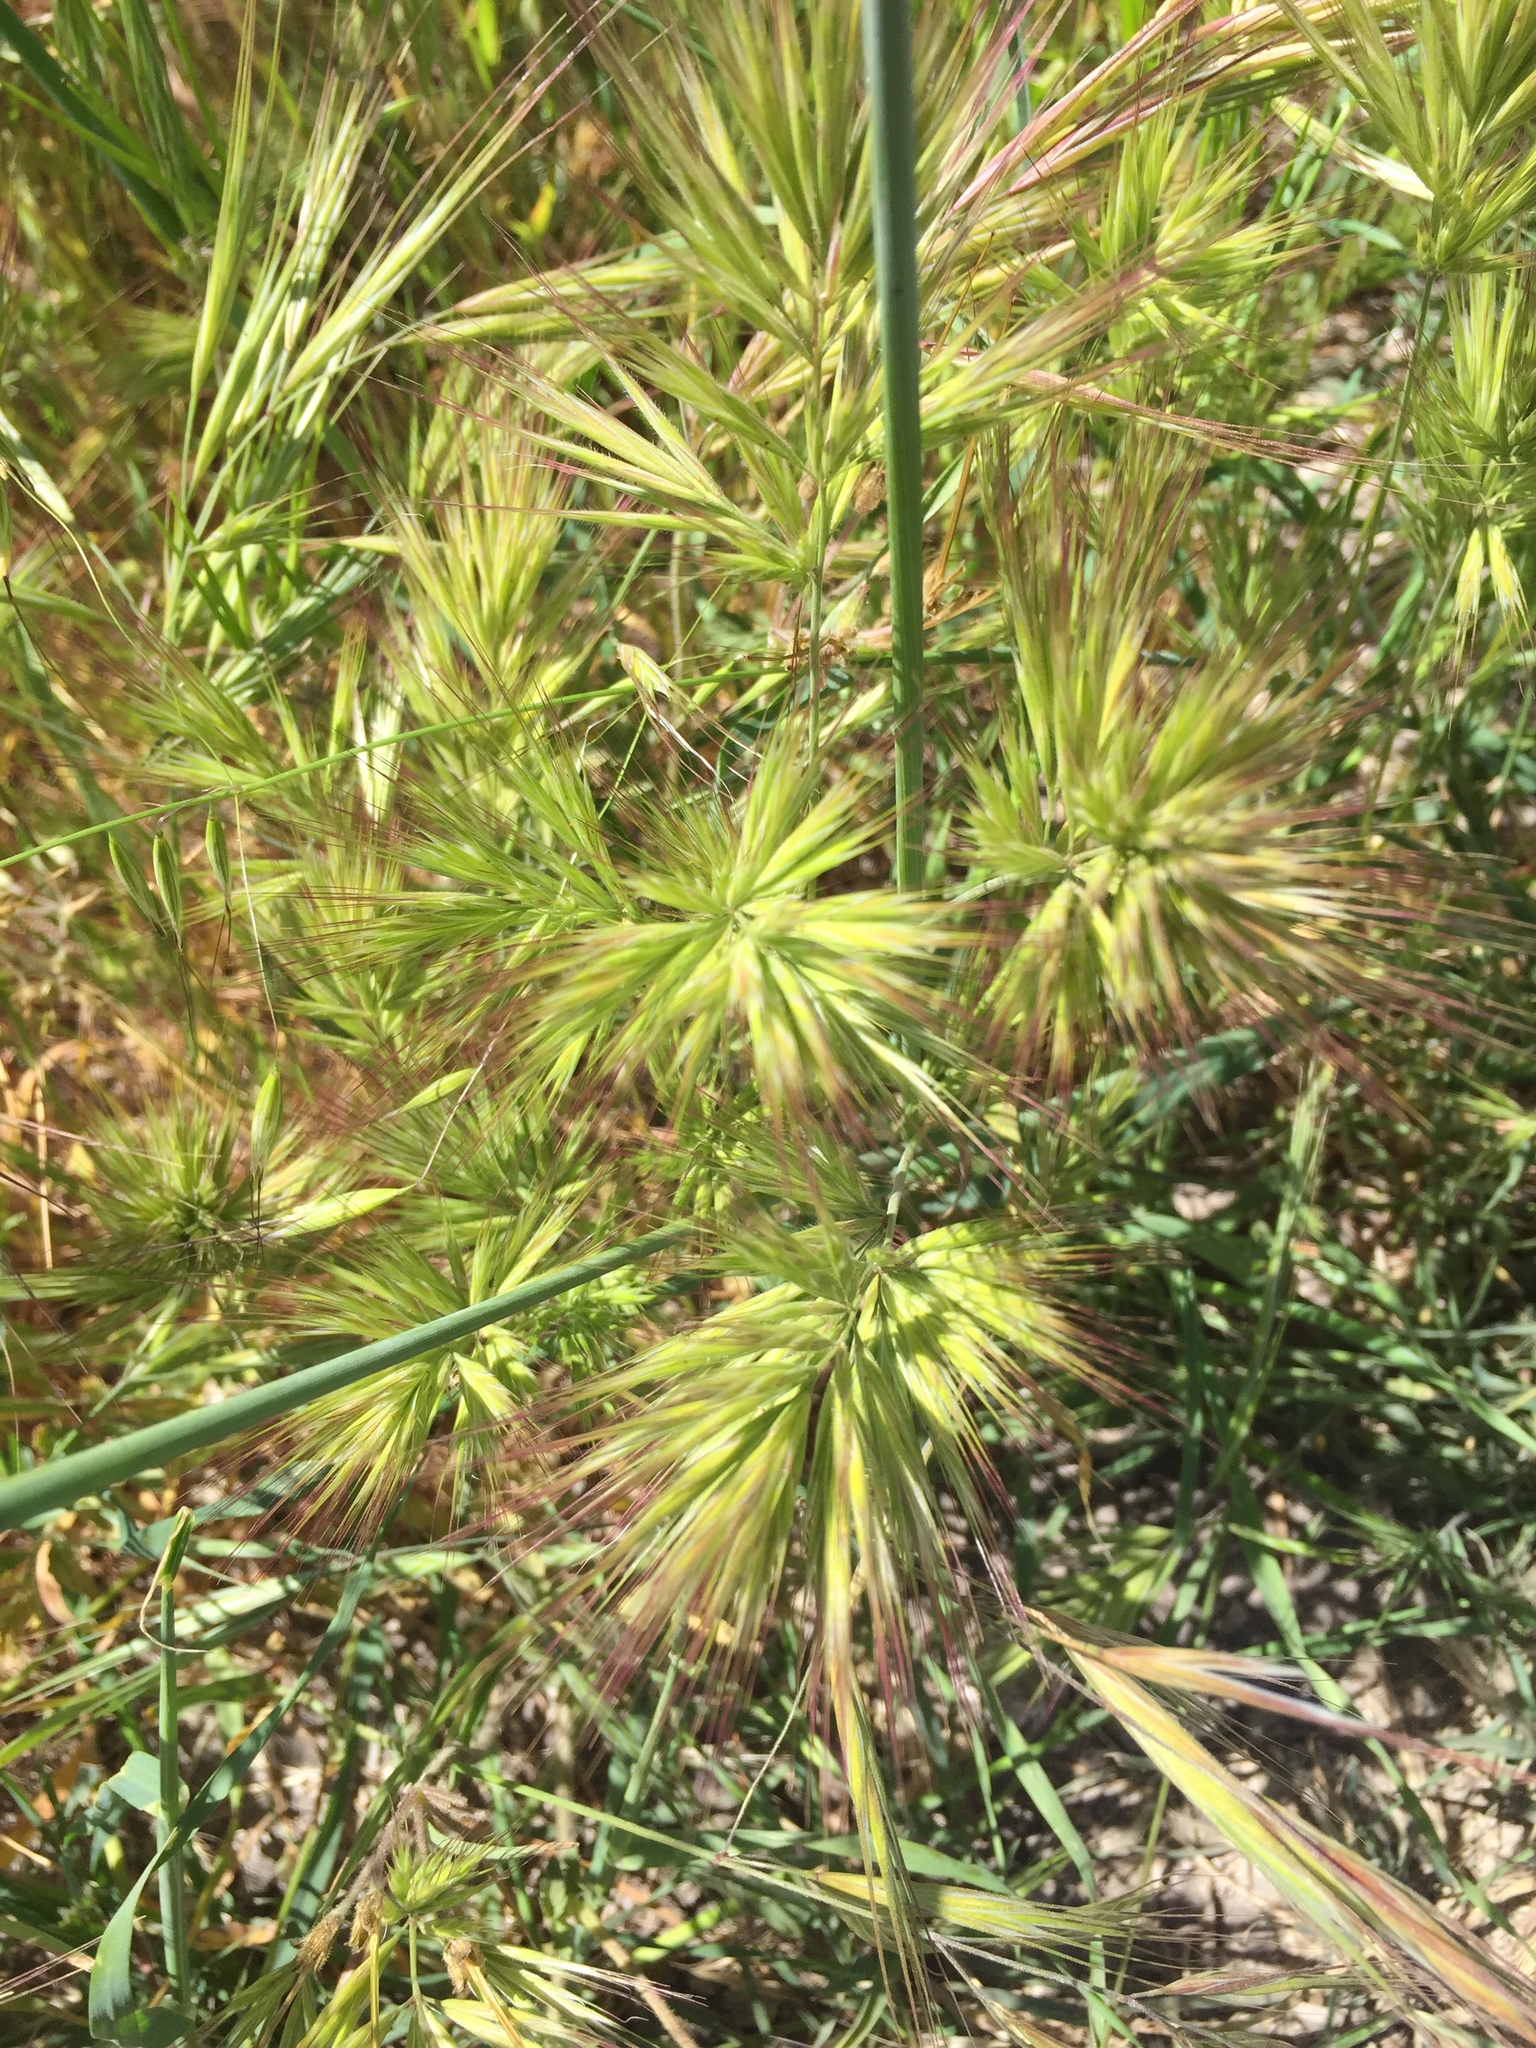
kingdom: Plantae
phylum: Tracheophyta
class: Liliopsida
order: Poales
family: Poaceae
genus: Bromus
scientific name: Bromus rubens
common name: Red brome
